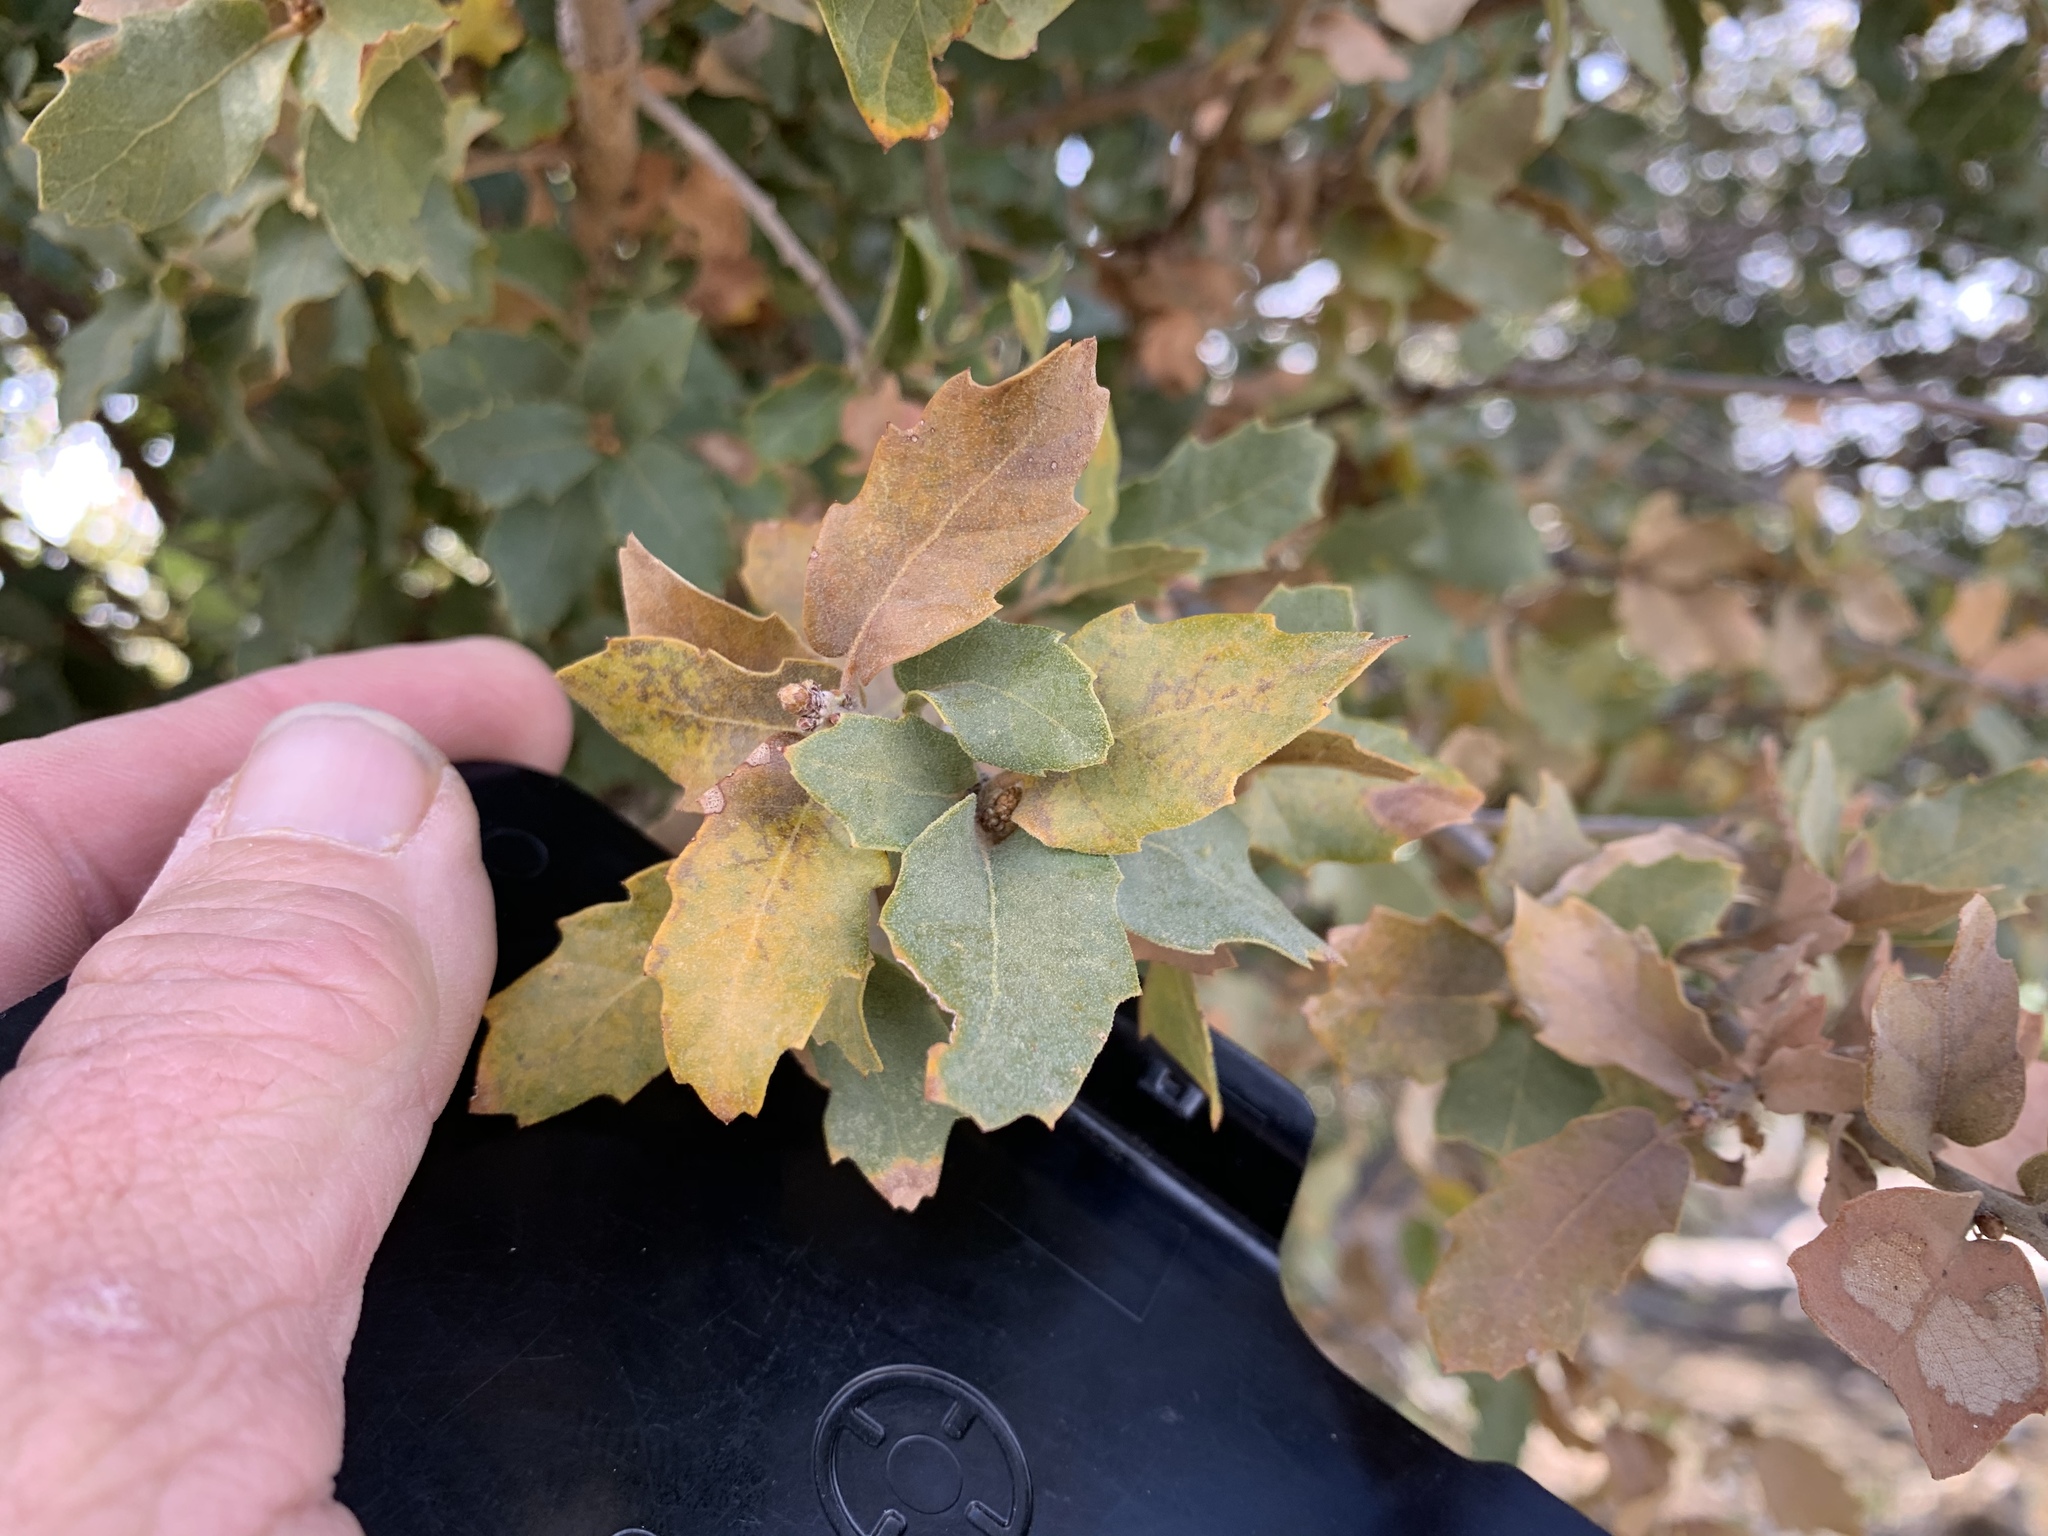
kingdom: Plantae
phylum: Tracheophyta
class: Magnoliopsida
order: Fagales
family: Fagaceae
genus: Quercus
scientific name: Quercus grisea
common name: Gray oak
